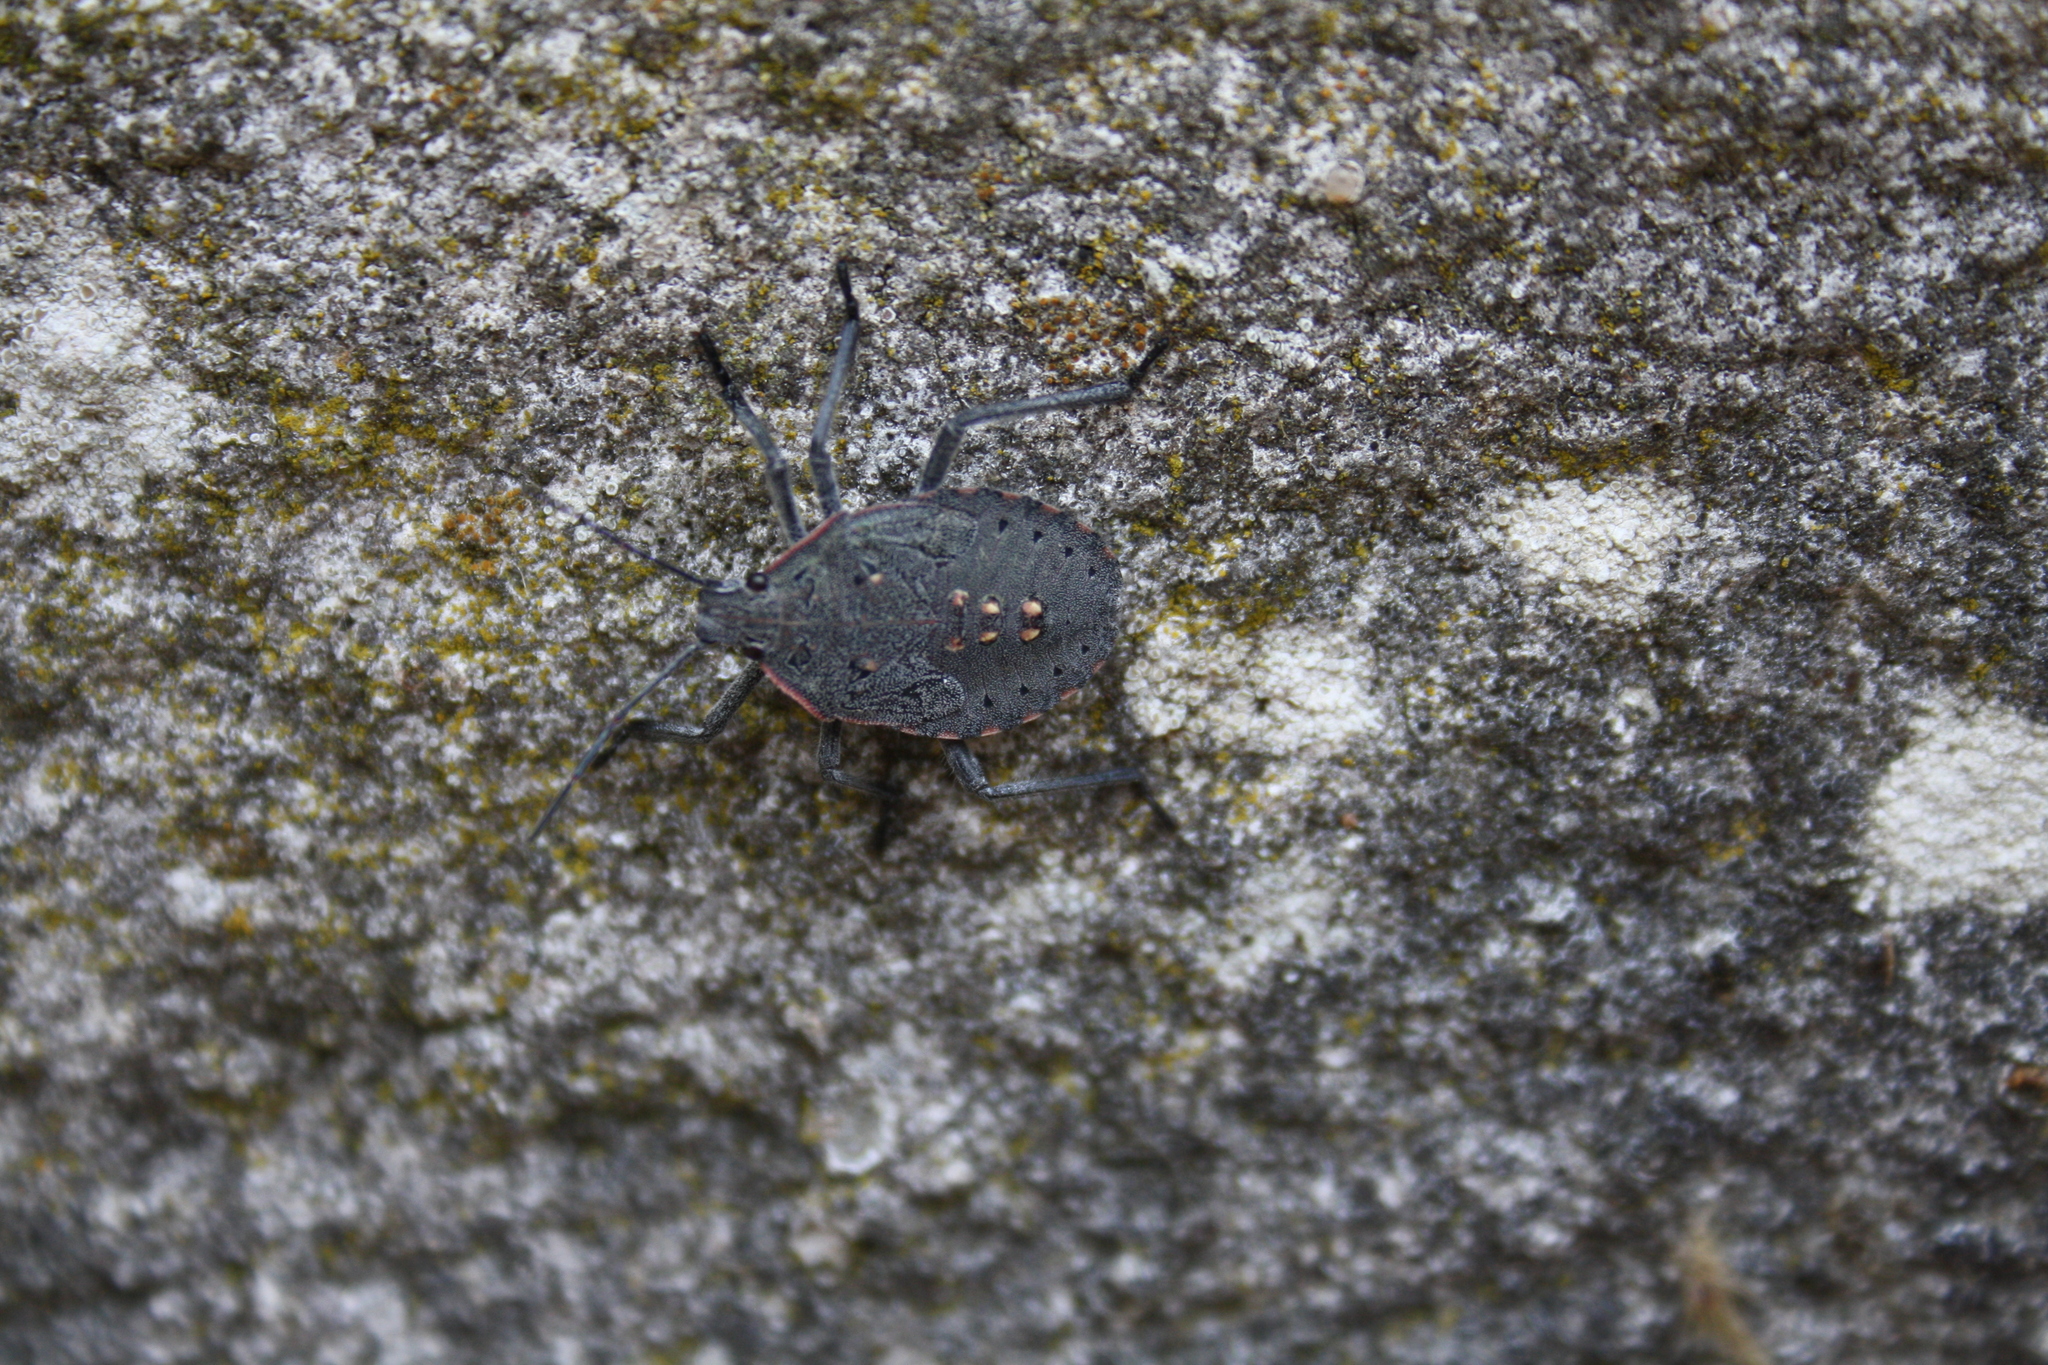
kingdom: Animalia
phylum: Arthropoda
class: Insecta
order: Hemiptera
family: Pentatomidae
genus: Apodiphus
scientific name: Apodiphus amygdali
